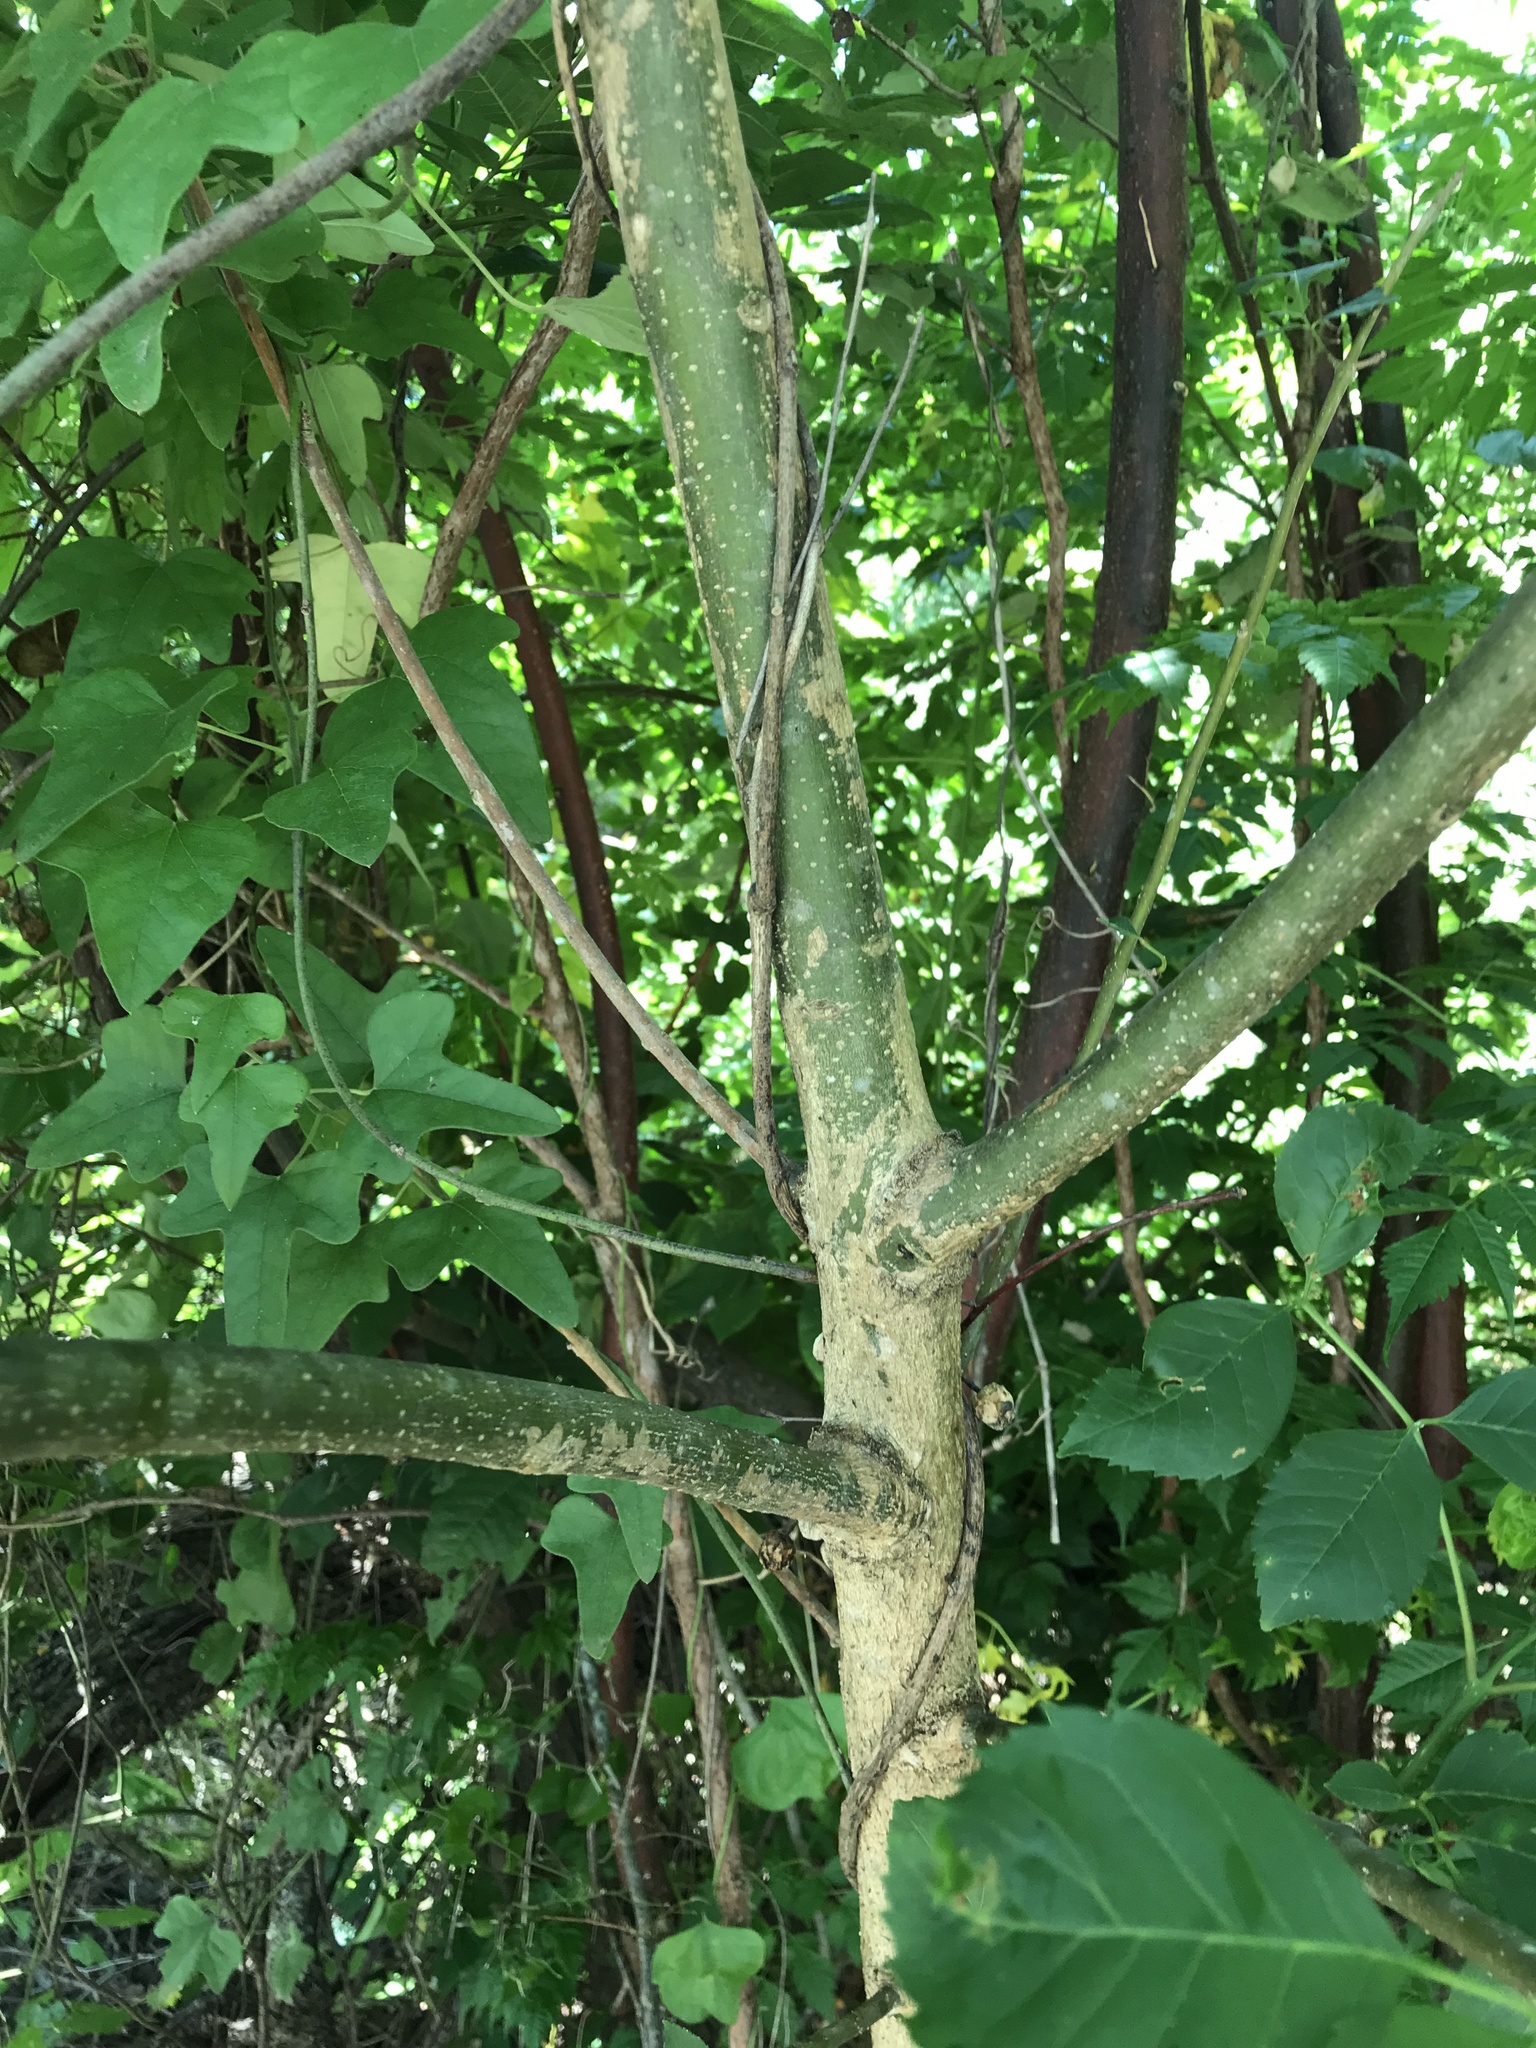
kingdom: Plantae
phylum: Tracheophyta
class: Magnoliopsida
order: Lamiales
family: Oleaceae
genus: Fraxinus
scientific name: Fraxinus pennsylvanica
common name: Green ash
